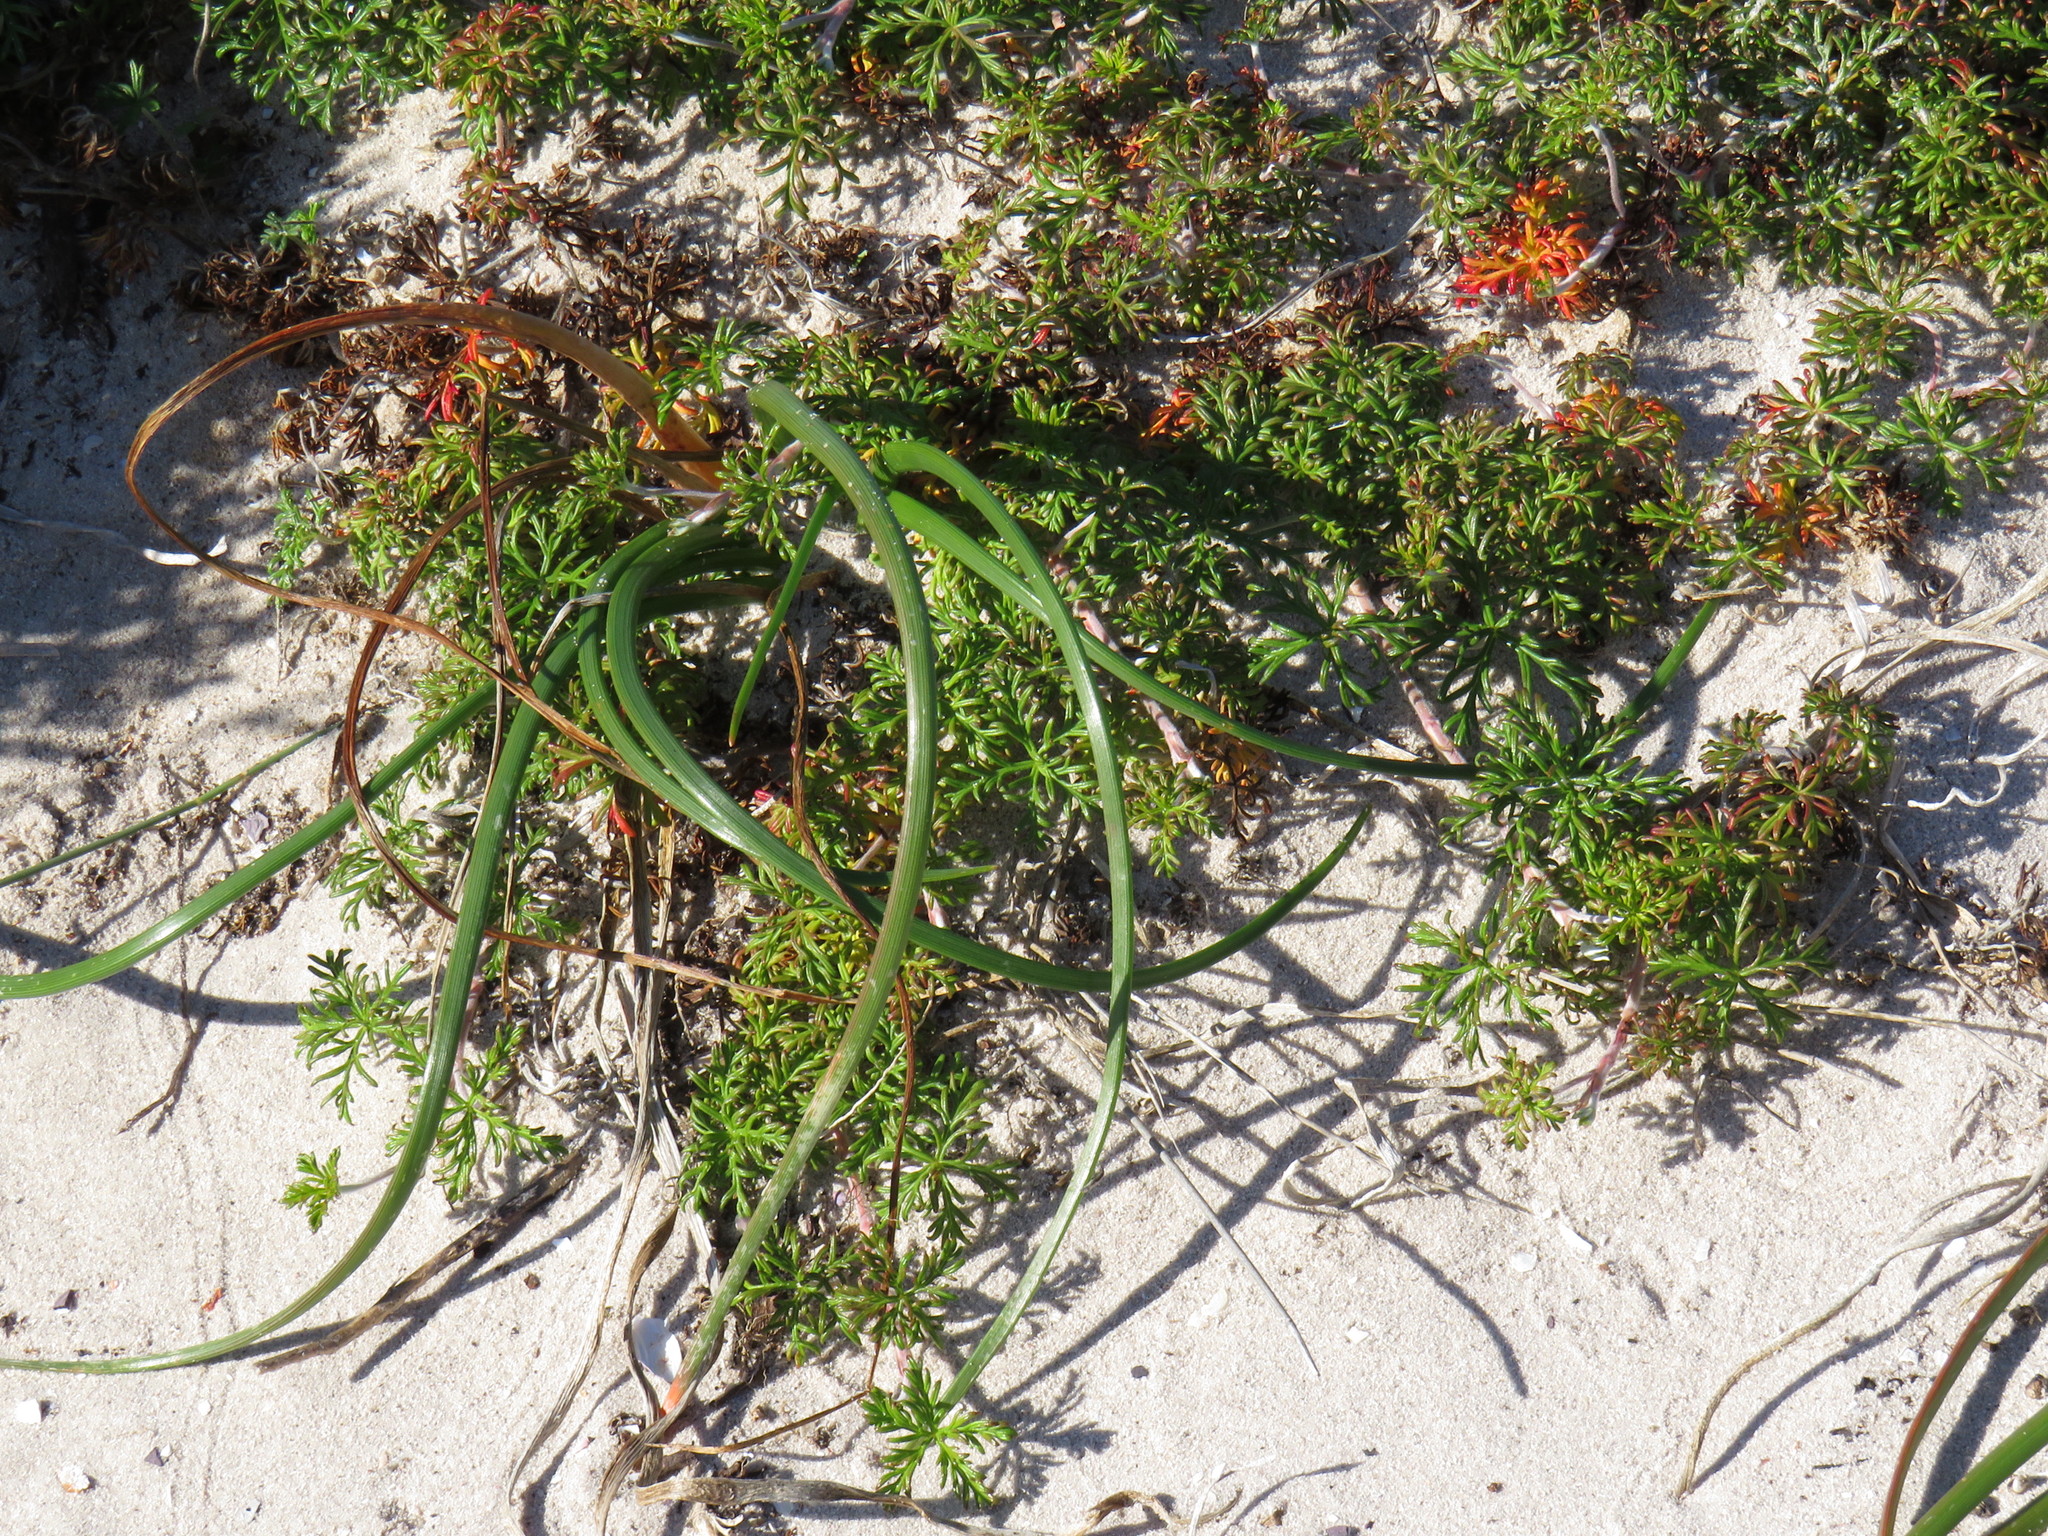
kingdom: Plantae
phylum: Tracheophyta
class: Magnoliopsida
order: Geraniales
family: Geraniaceae
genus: Geranium
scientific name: Geranium incanum
